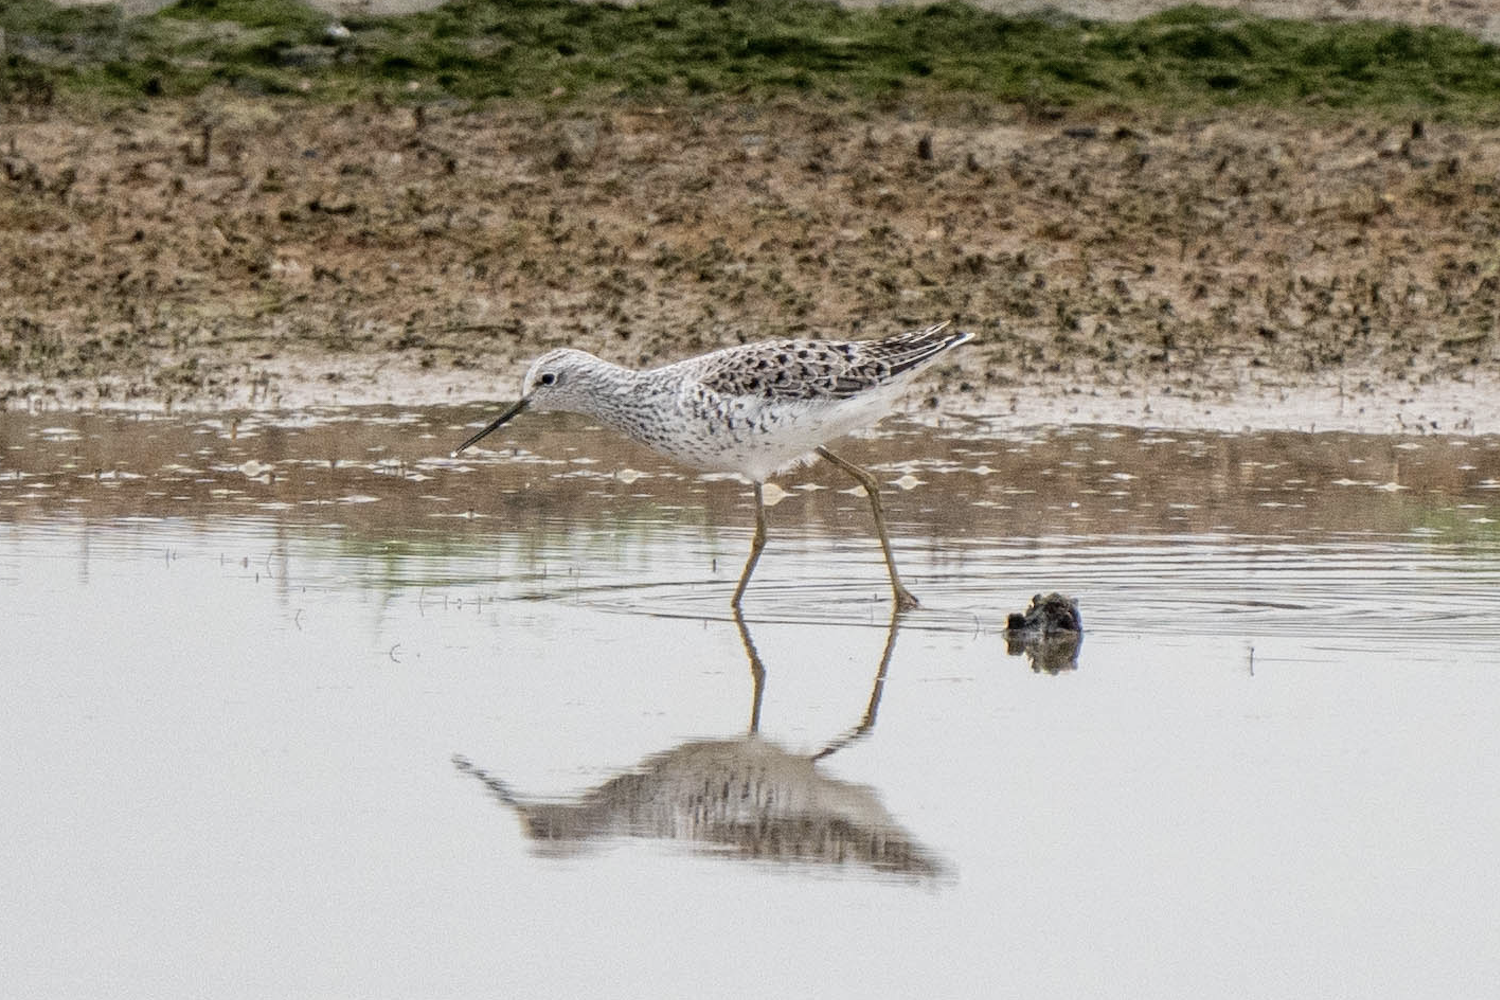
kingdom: Animalia
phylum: Chordata
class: Aves
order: Charadriiformes
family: Scolopacidae
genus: Tringa
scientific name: Tringa stagnatilis
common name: Marsh sandpiper
